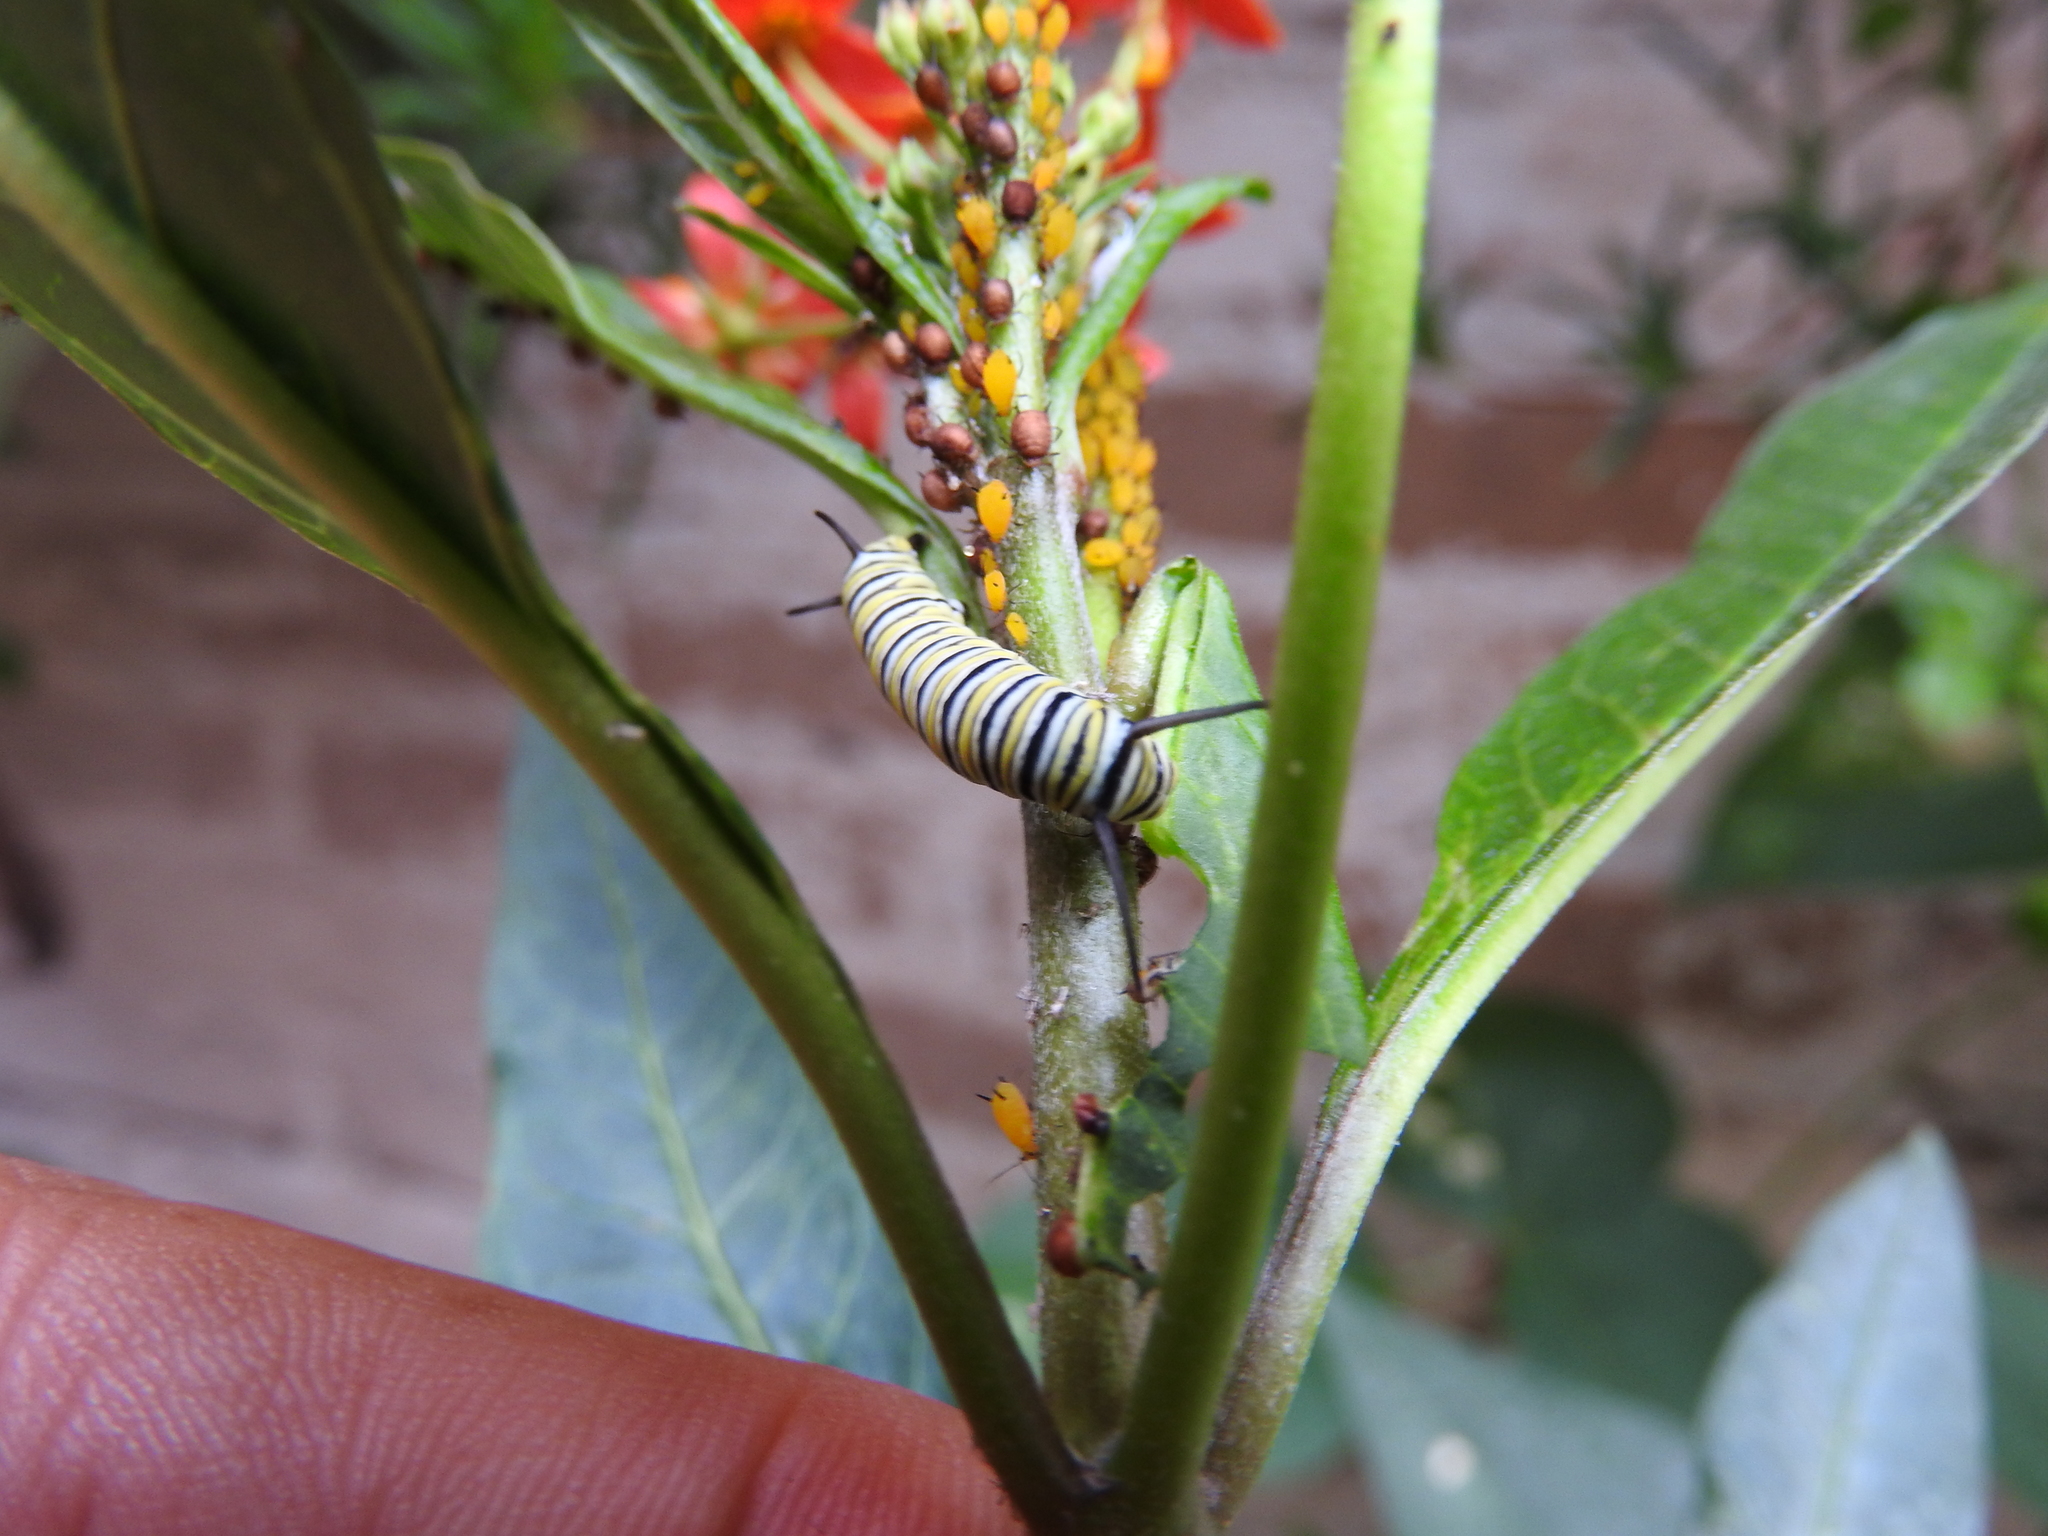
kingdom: Animalia
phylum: Arthropoda
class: Insecta
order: Lepidoptera
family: Nymphalidae
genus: Danaus
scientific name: Danaus plexippus
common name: Monarch
